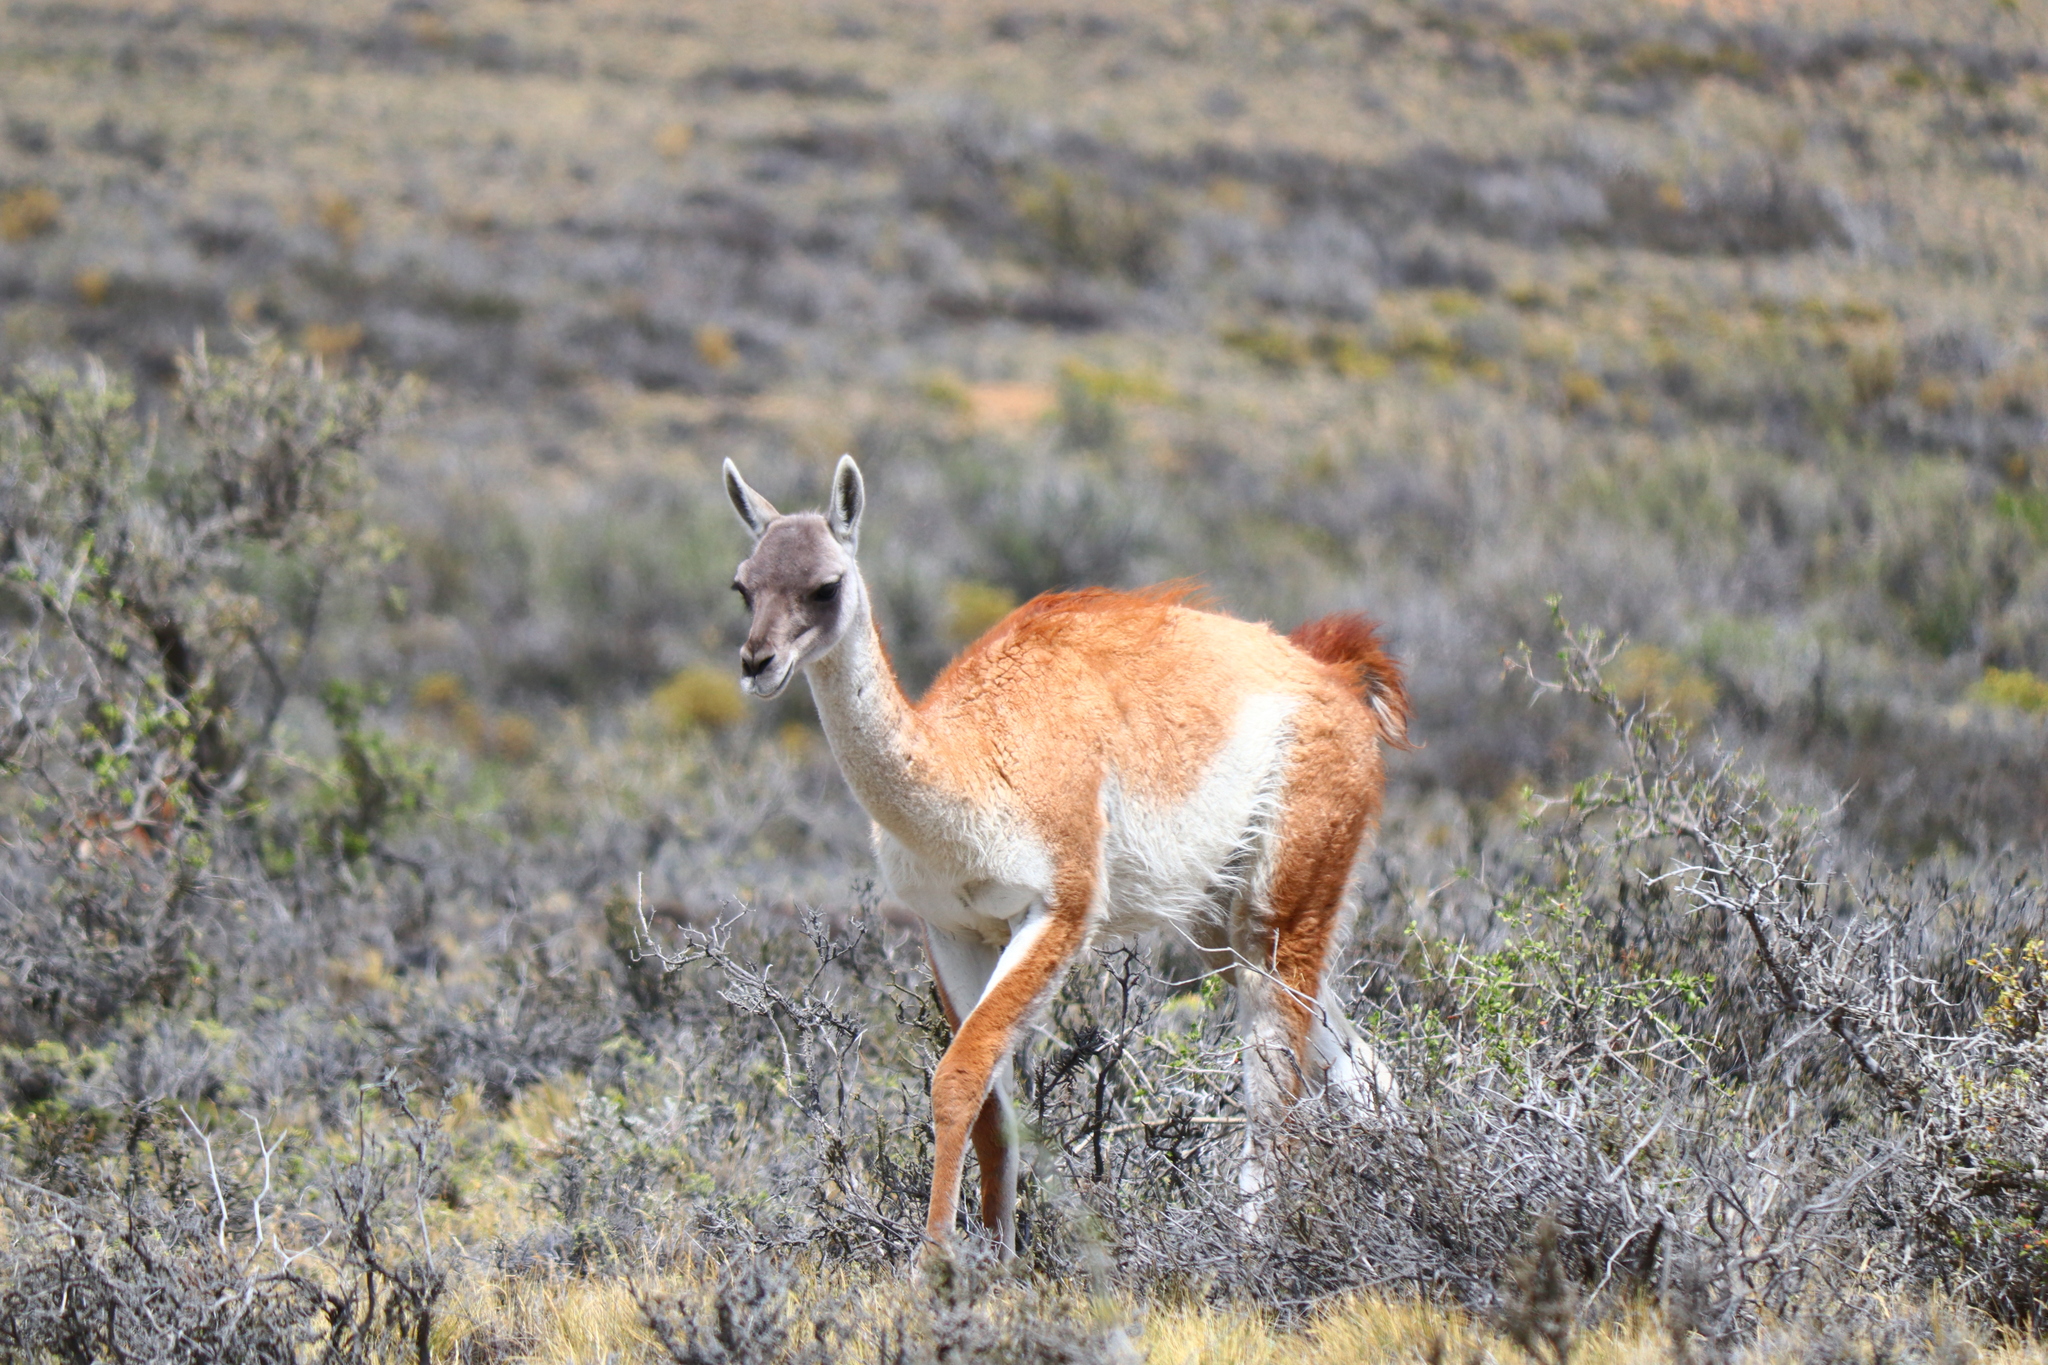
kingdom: Animalia
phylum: Chordata
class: Mammalia
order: Artiodactyla
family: Camelidae
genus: Lama
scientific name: Lama glama
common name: Llama
